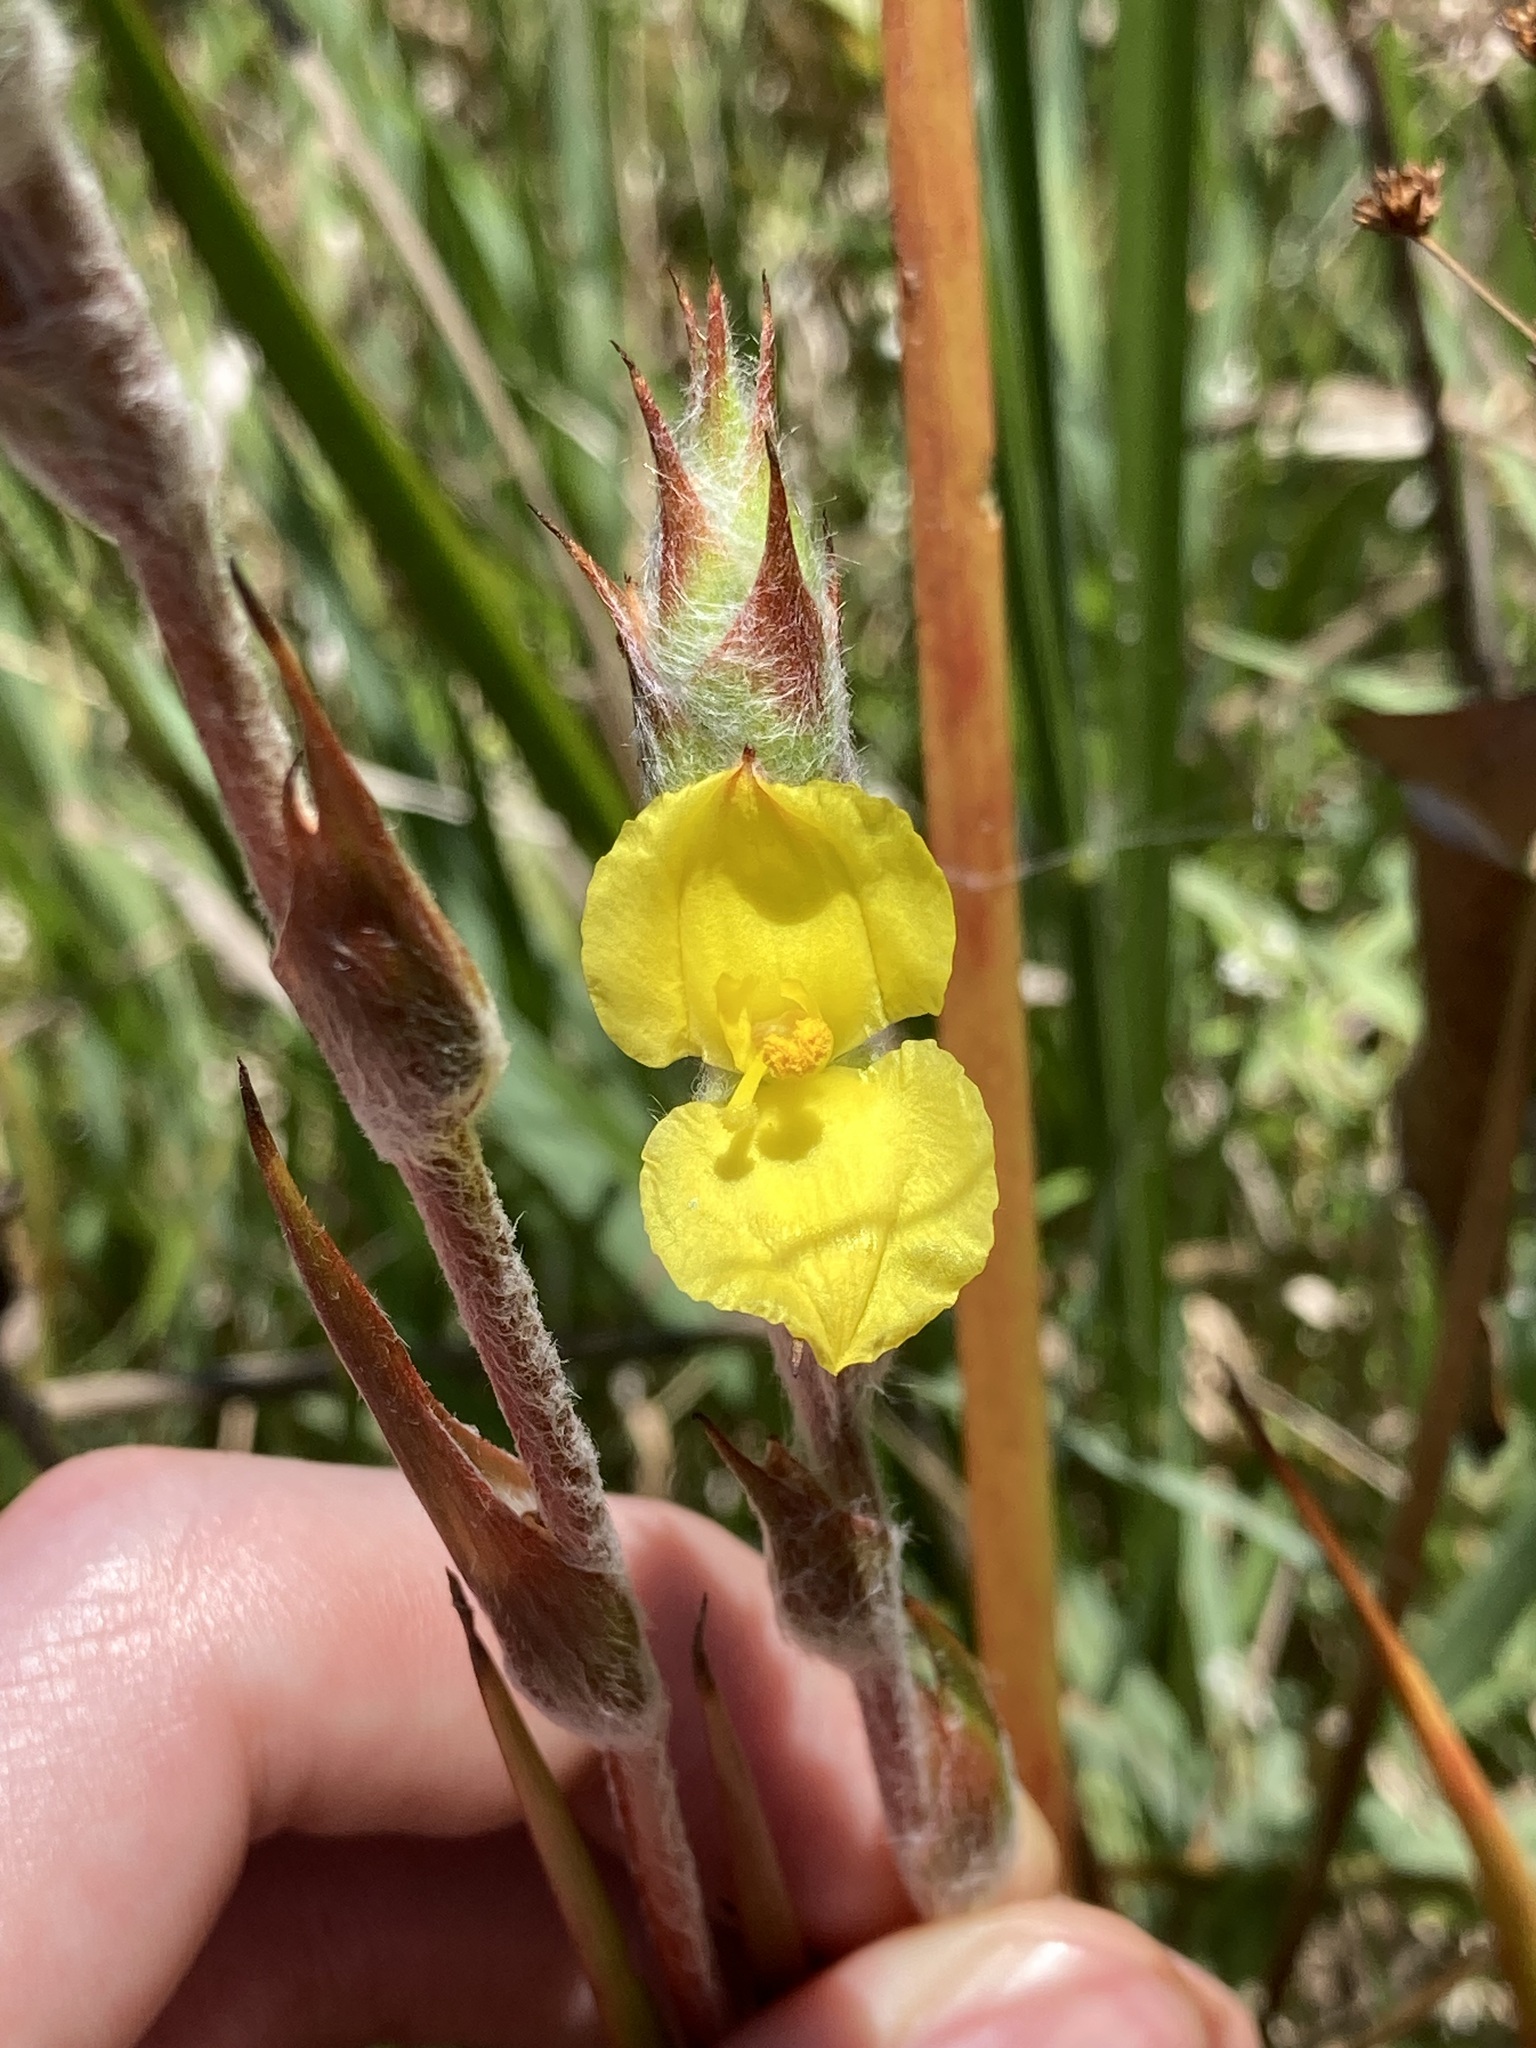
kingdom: Plantae
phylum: Tracheophyta
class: Liliopsida
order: Commelinales
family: Philydraceae
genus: Philydrum
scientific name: Philydrum lanuginosum
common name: Woolly frog's mouth
